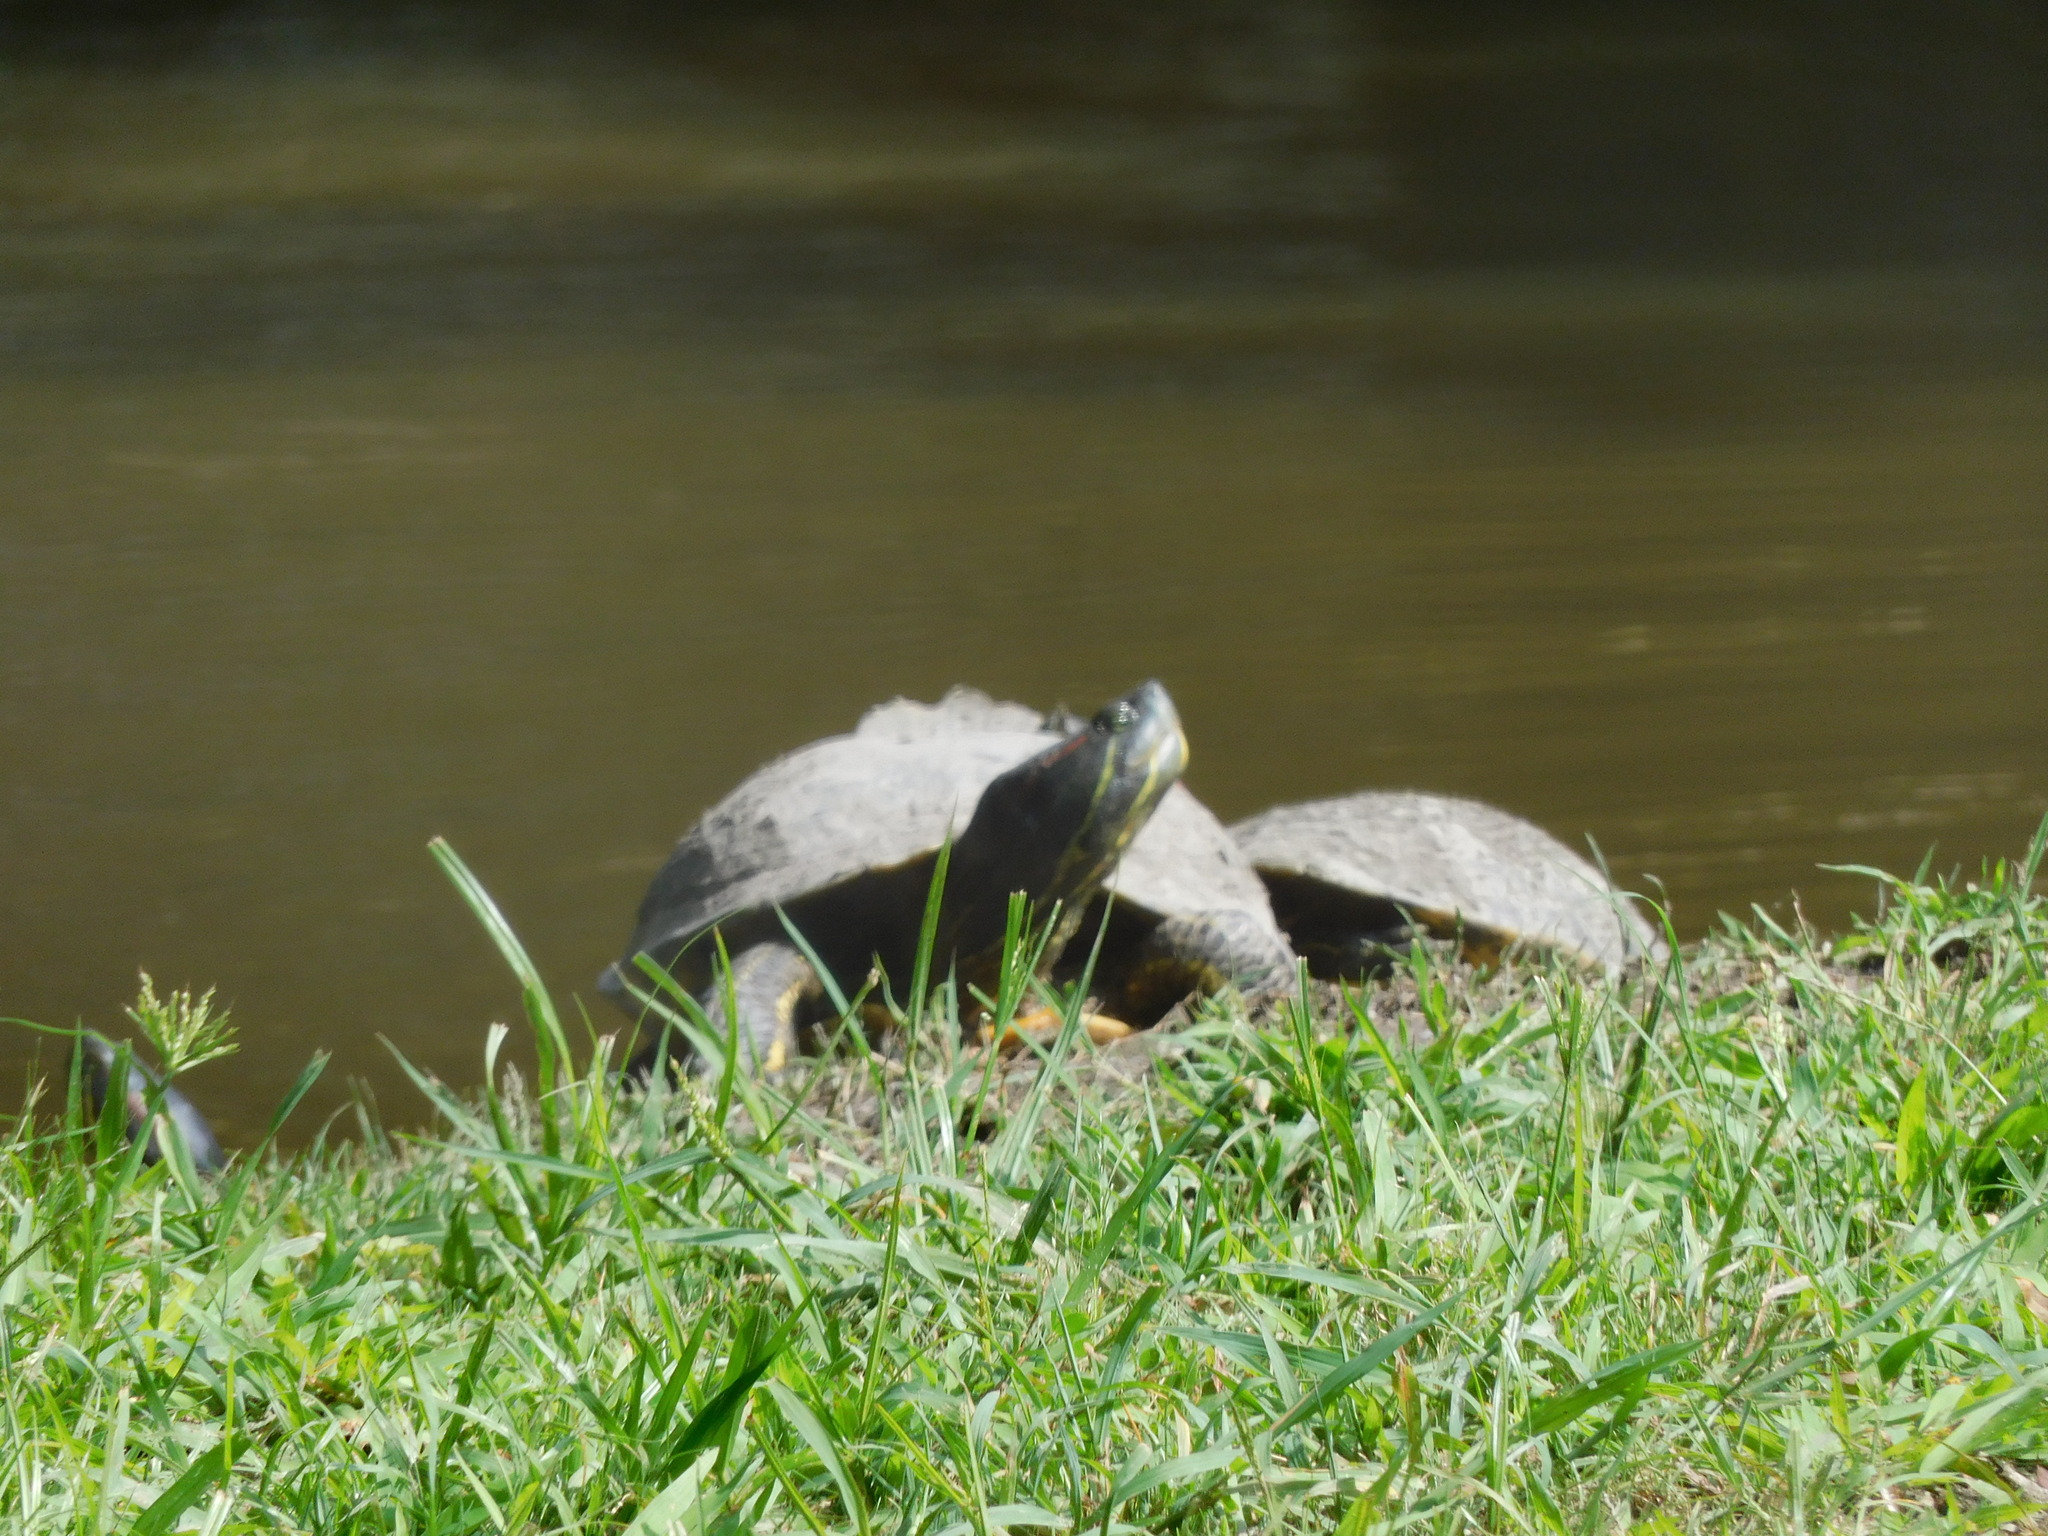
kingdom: Animalia
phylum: Chordata
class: Testudines
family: Emydidae
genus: Trachemys
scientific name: Trachemys scripta
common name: Slider
